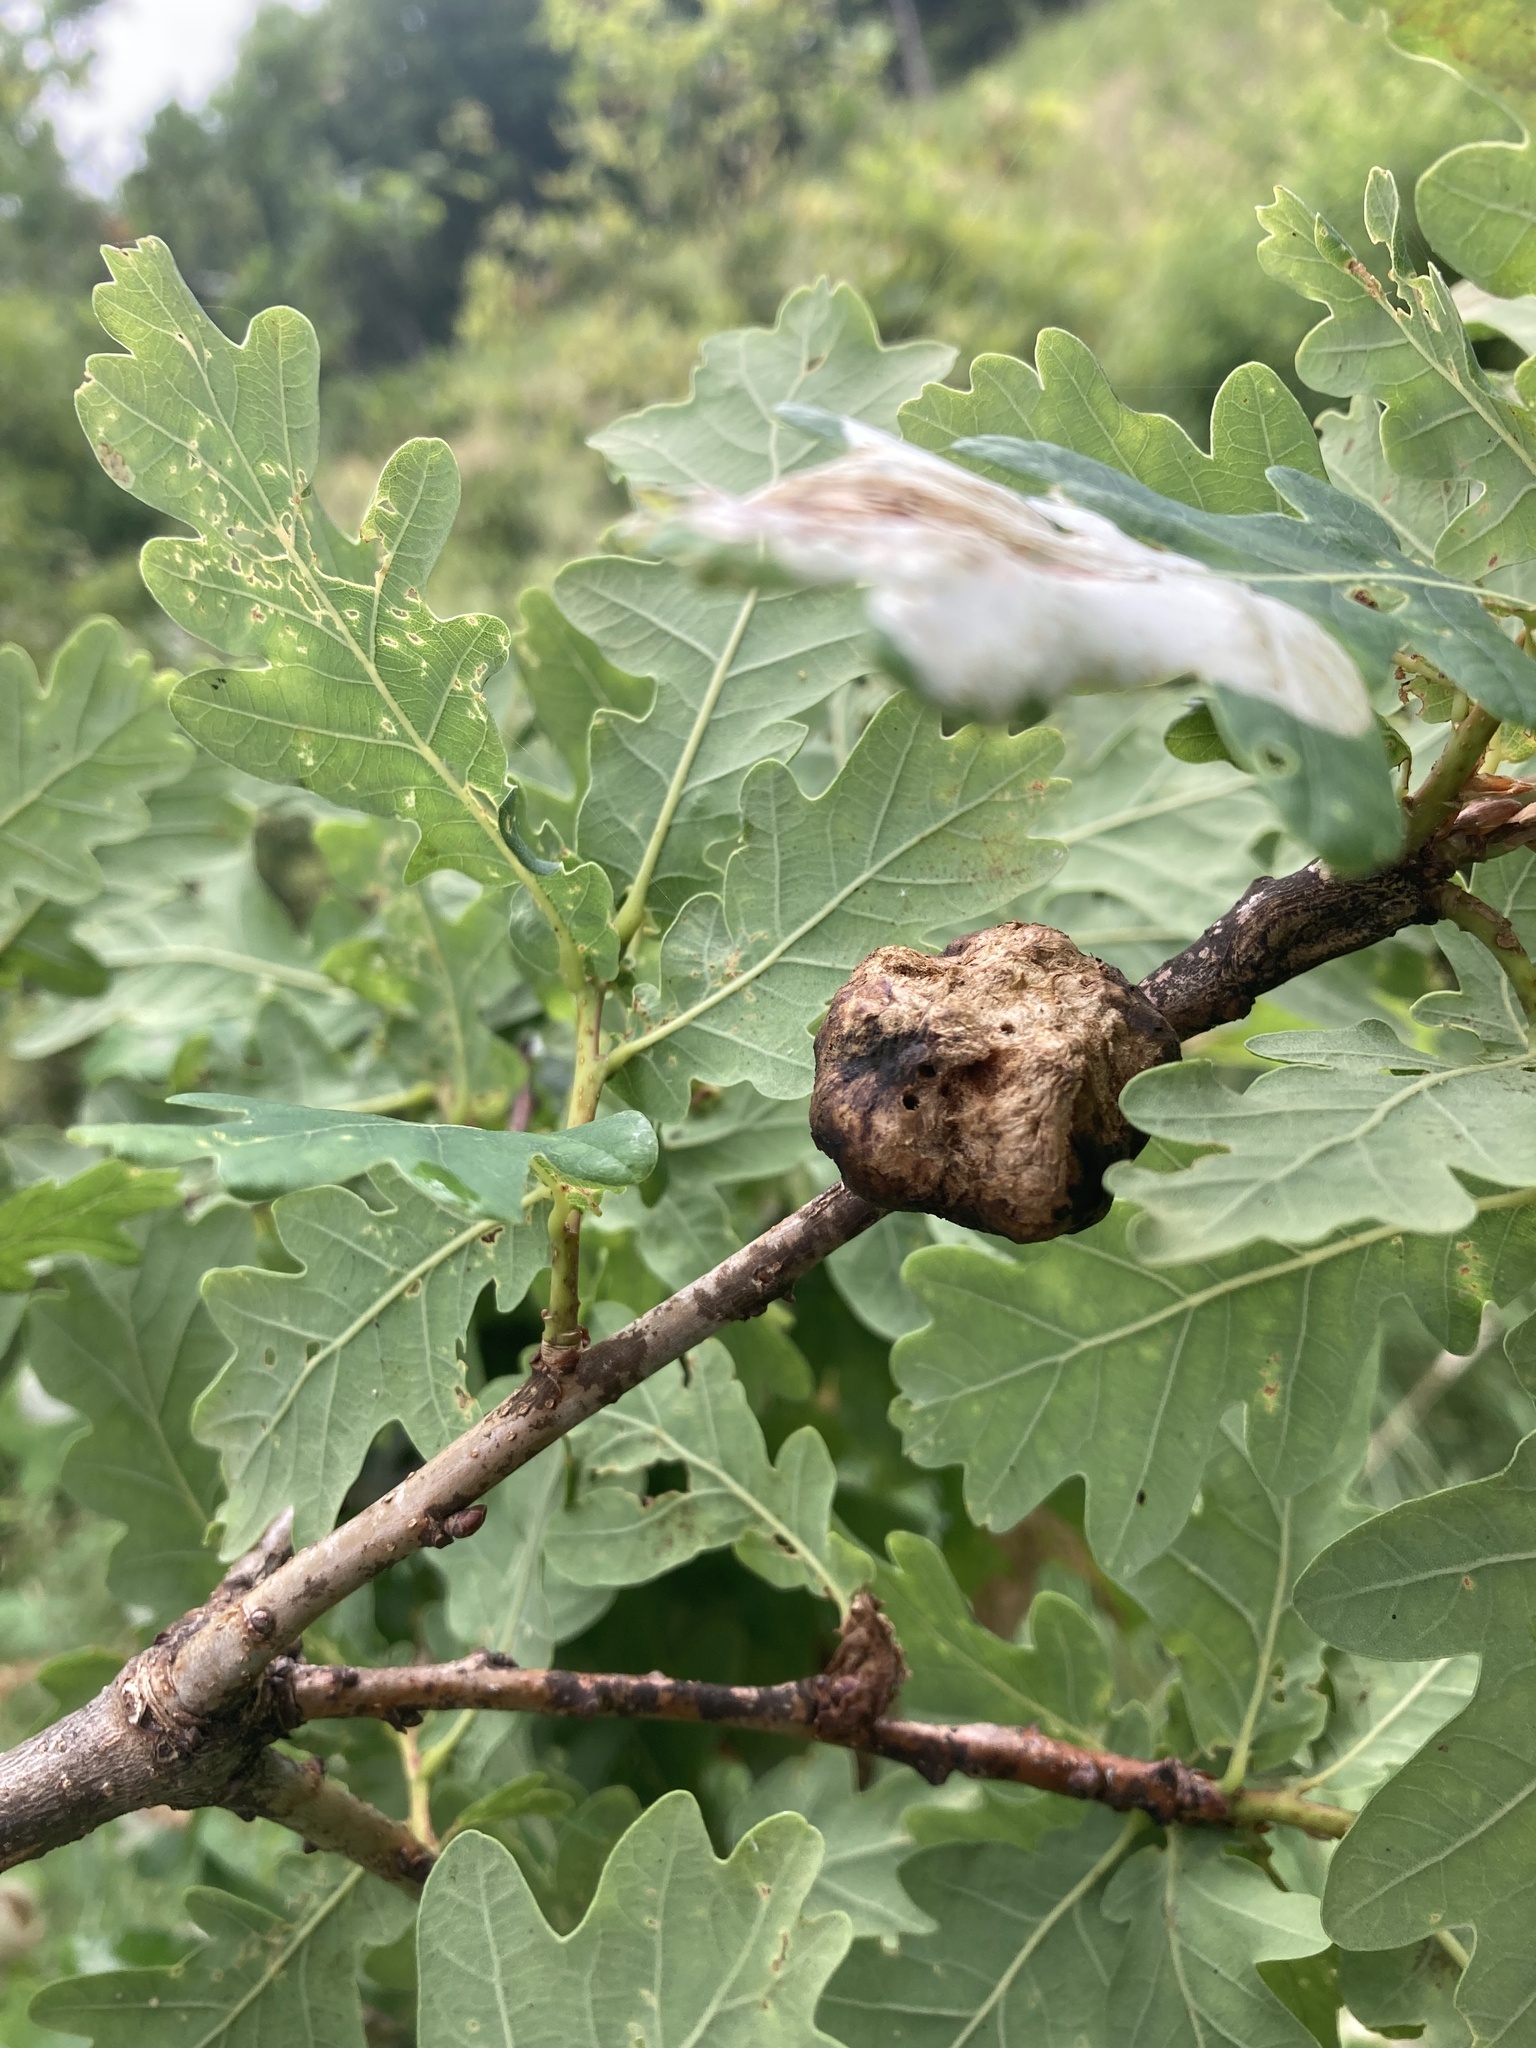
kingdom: Animalia
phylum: Arthropoda
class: Insecta
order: Hymenoptera
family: Cynipidae
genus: Biorhiza
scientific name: Biorhiza pallida
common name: Oak apple
